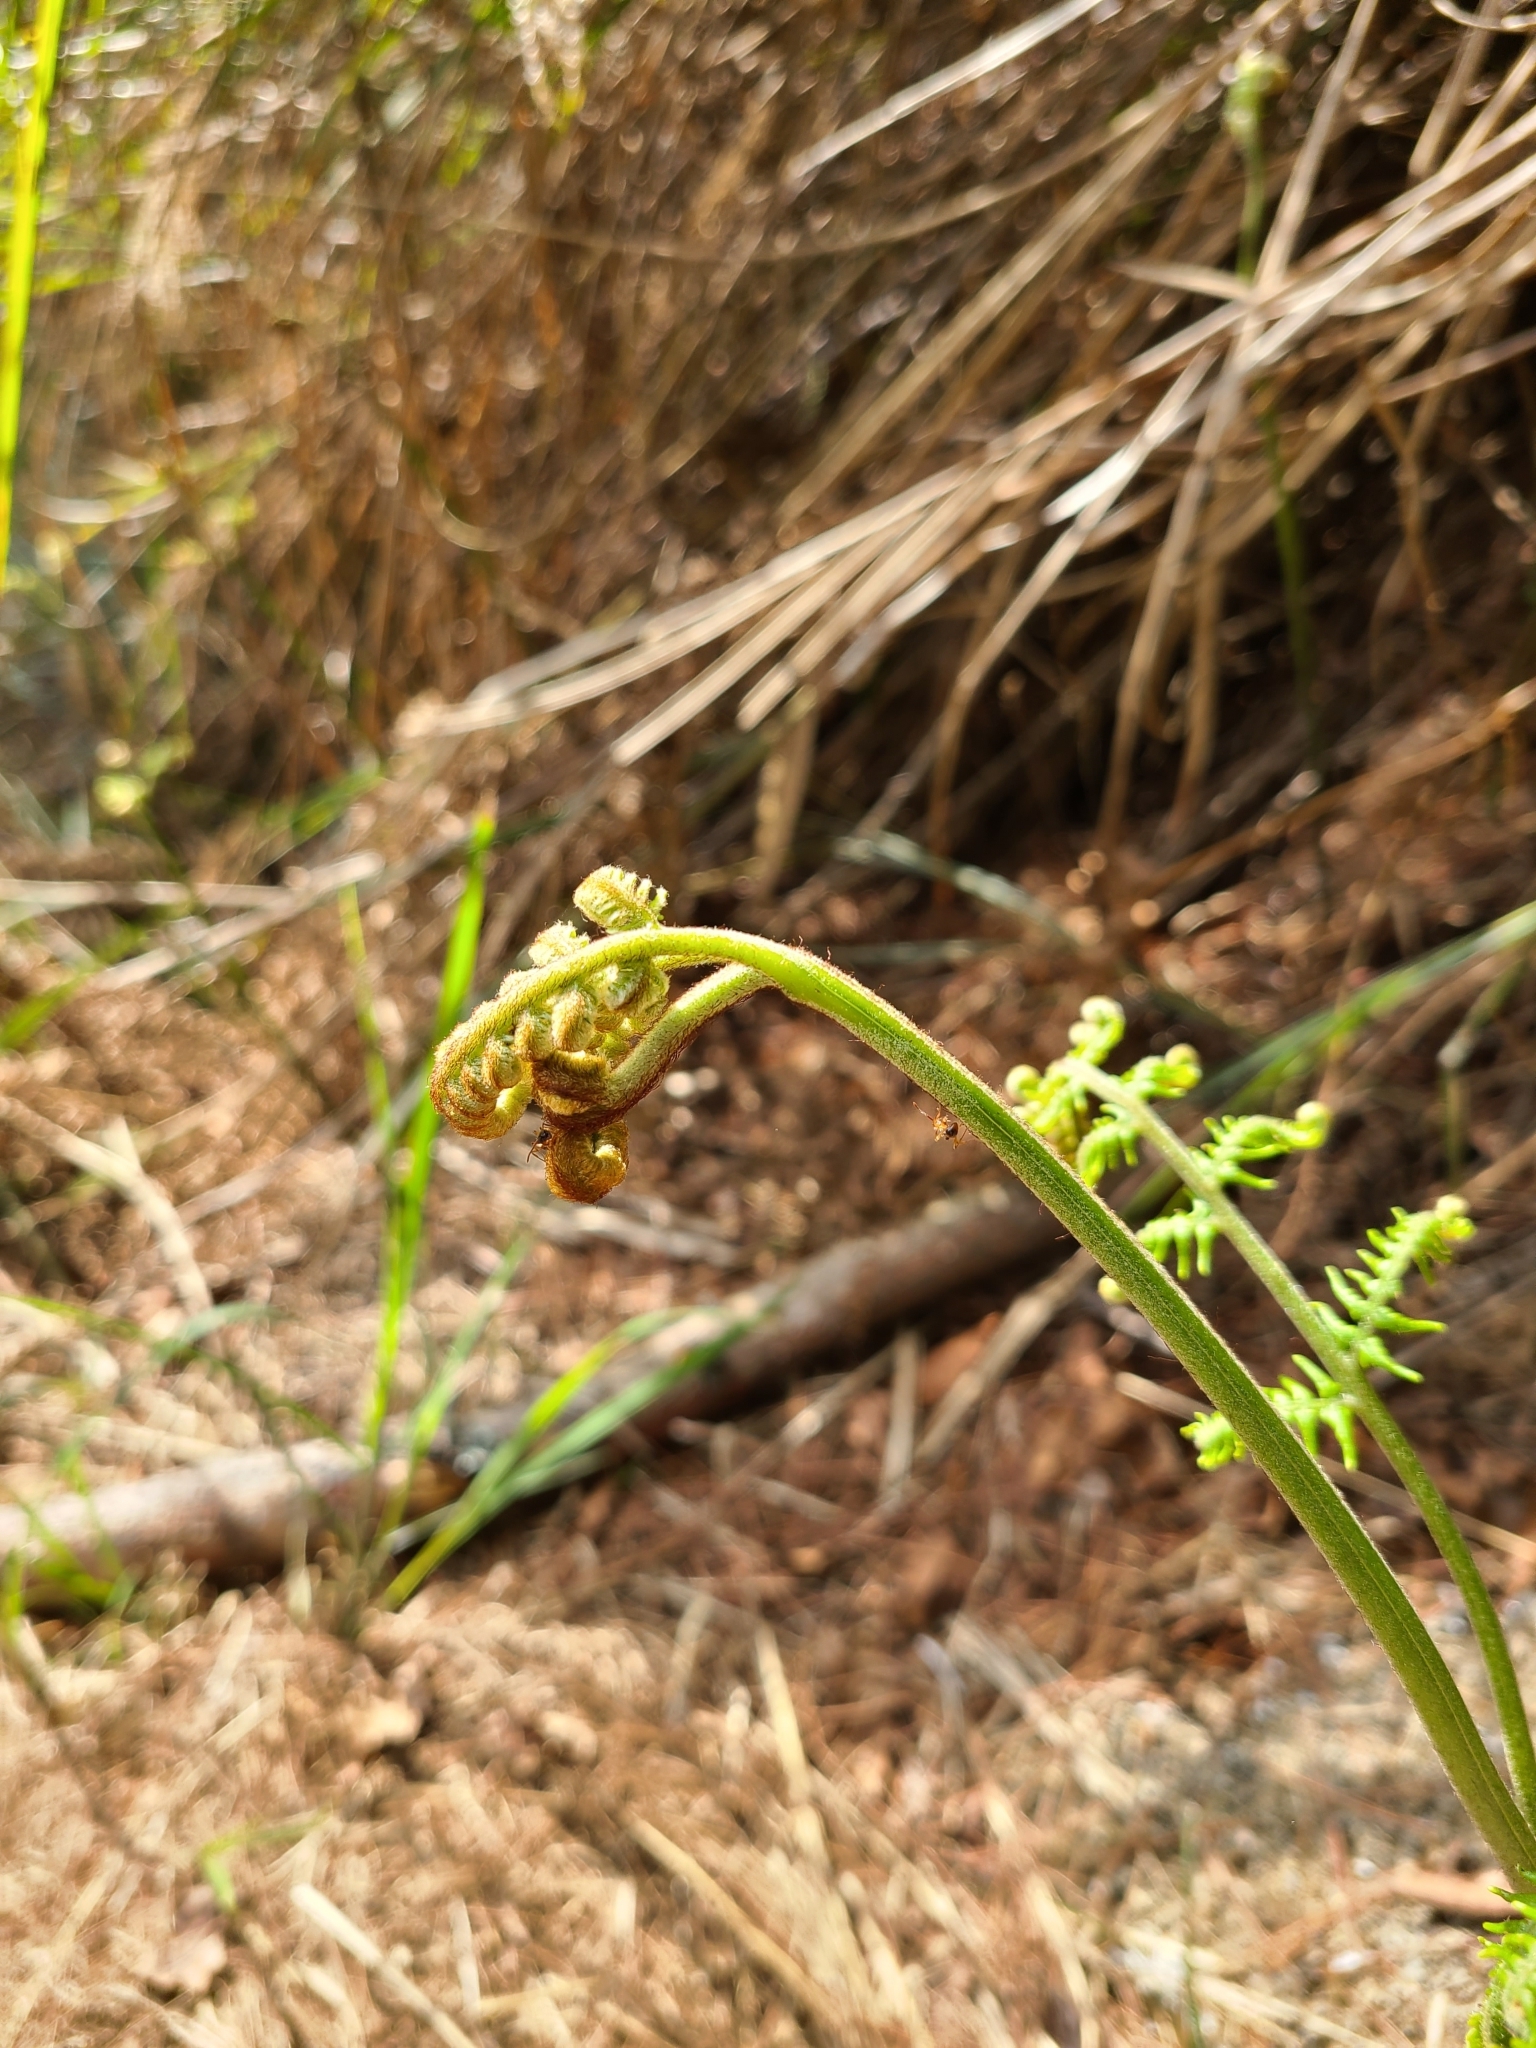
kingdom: Plantae
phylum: Tracheophyta
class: Polypodiopsida
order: Polypodiales
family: Dennstaedtiaceae
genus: Pteridium
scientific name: Pteridium aquilinum
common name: Bracken
